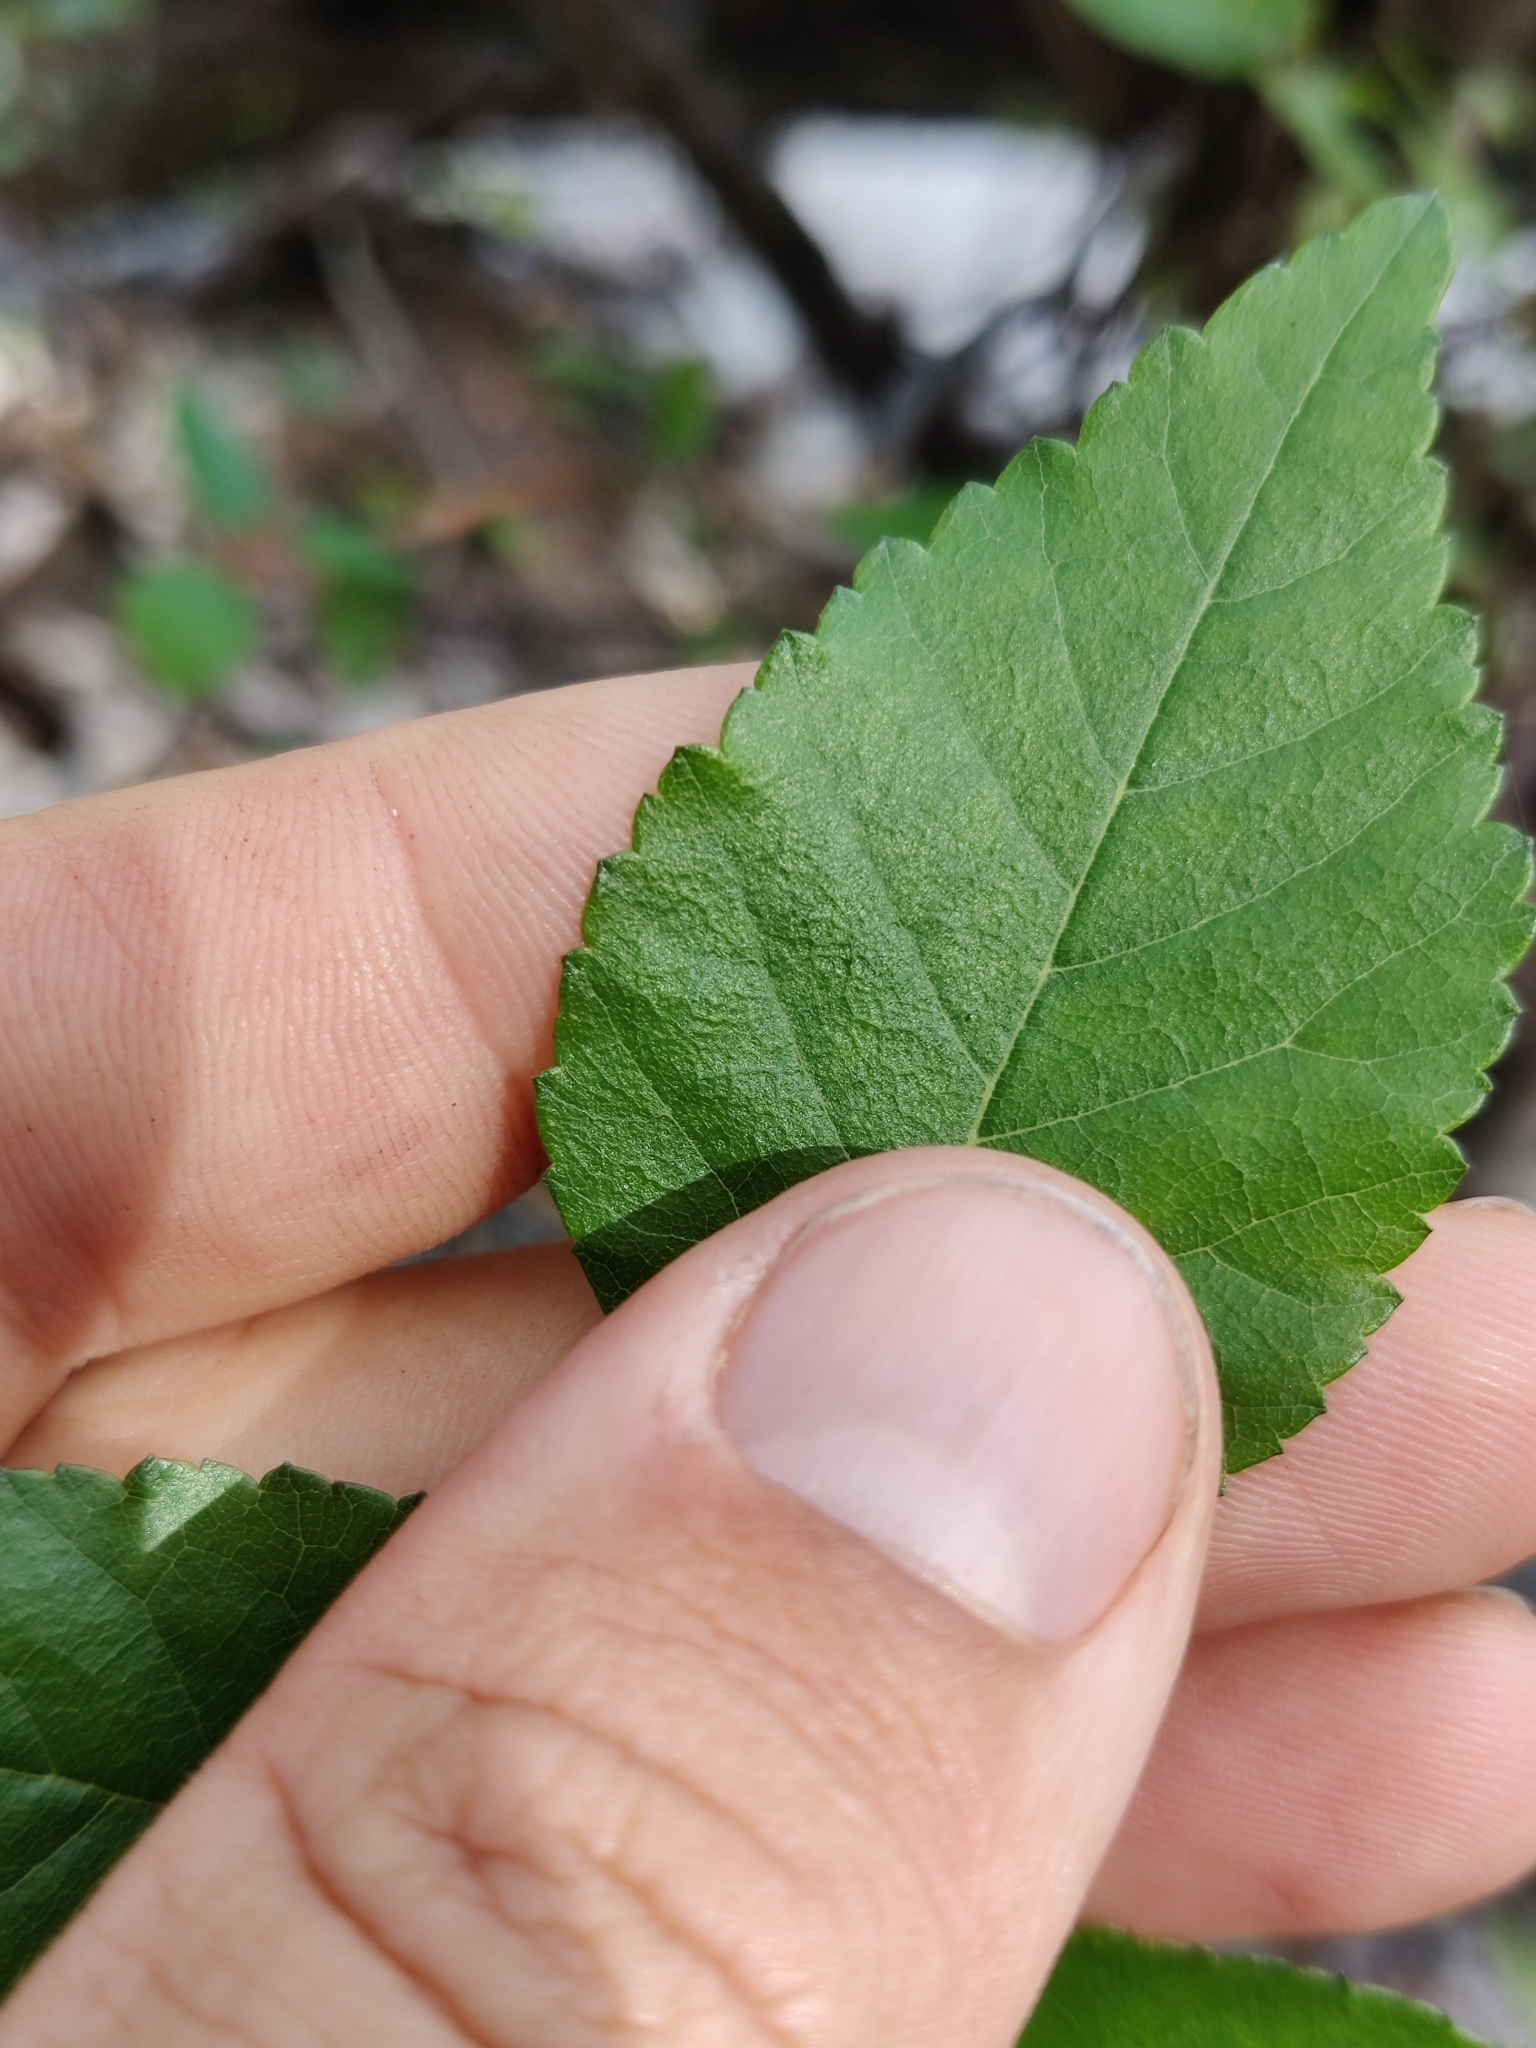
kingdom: Plantae
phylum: Tracheophyta
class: Magnoliopsida
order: Fagales
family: Betulaceae
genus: Betula
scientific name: Betula nigra
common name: Black birch
